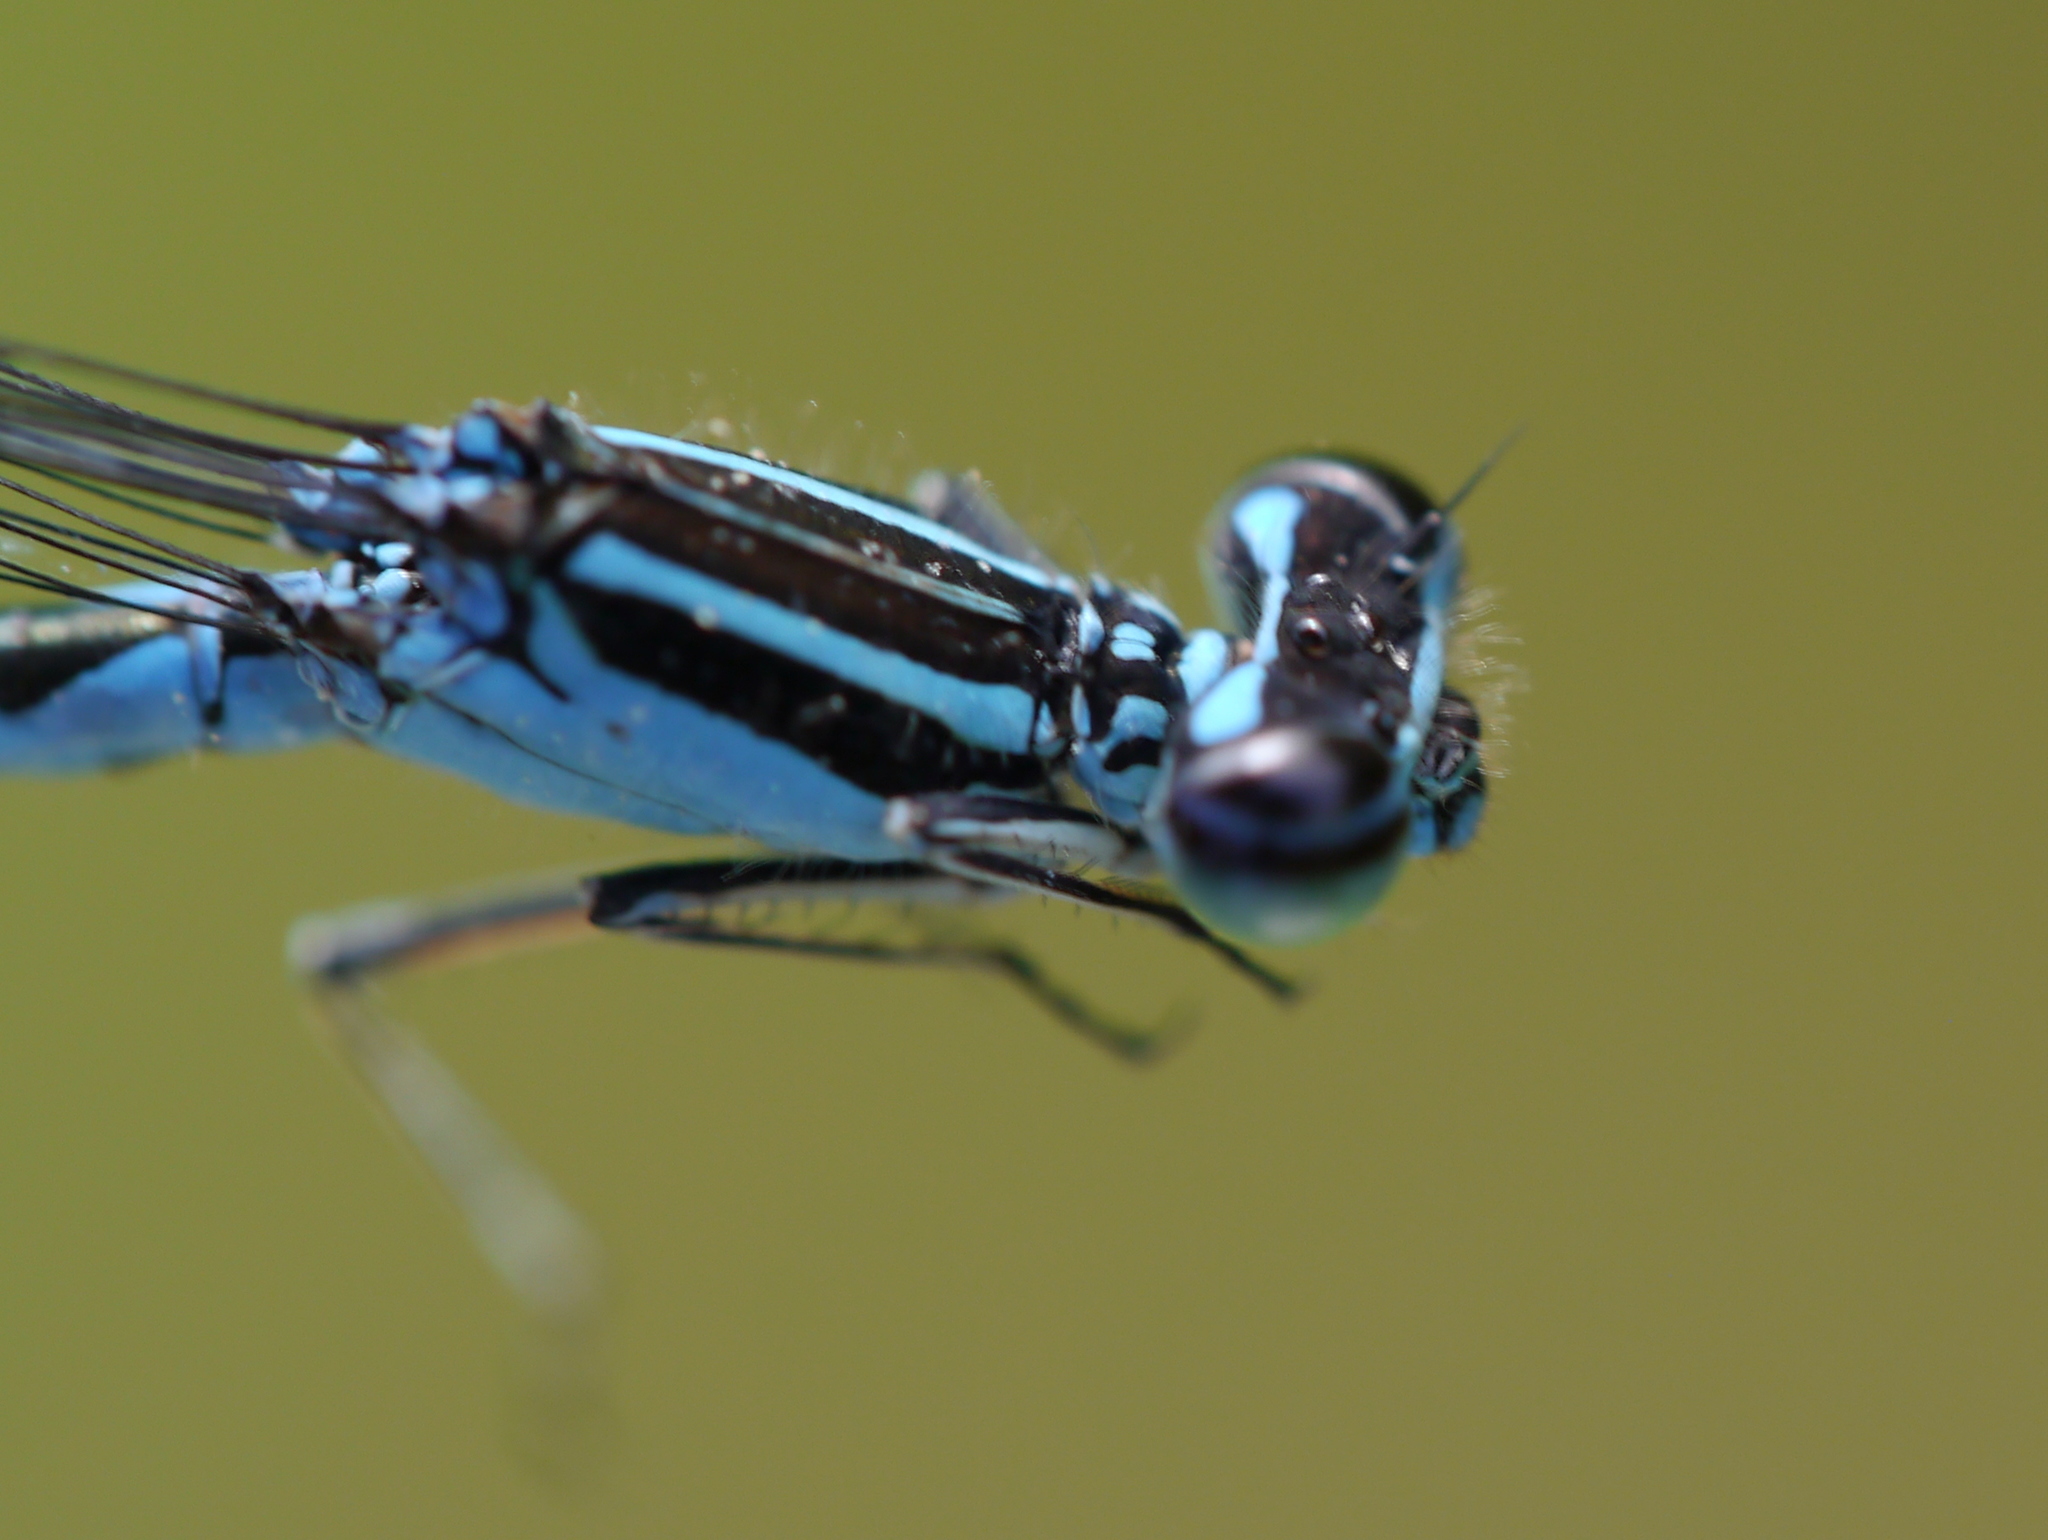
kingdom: Animalia
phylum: Arthropoda
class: Insecta
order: Odonata
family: Coenagrionidae
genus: Enallagma
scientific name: Enallagma exsulans
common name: Stream bluet
